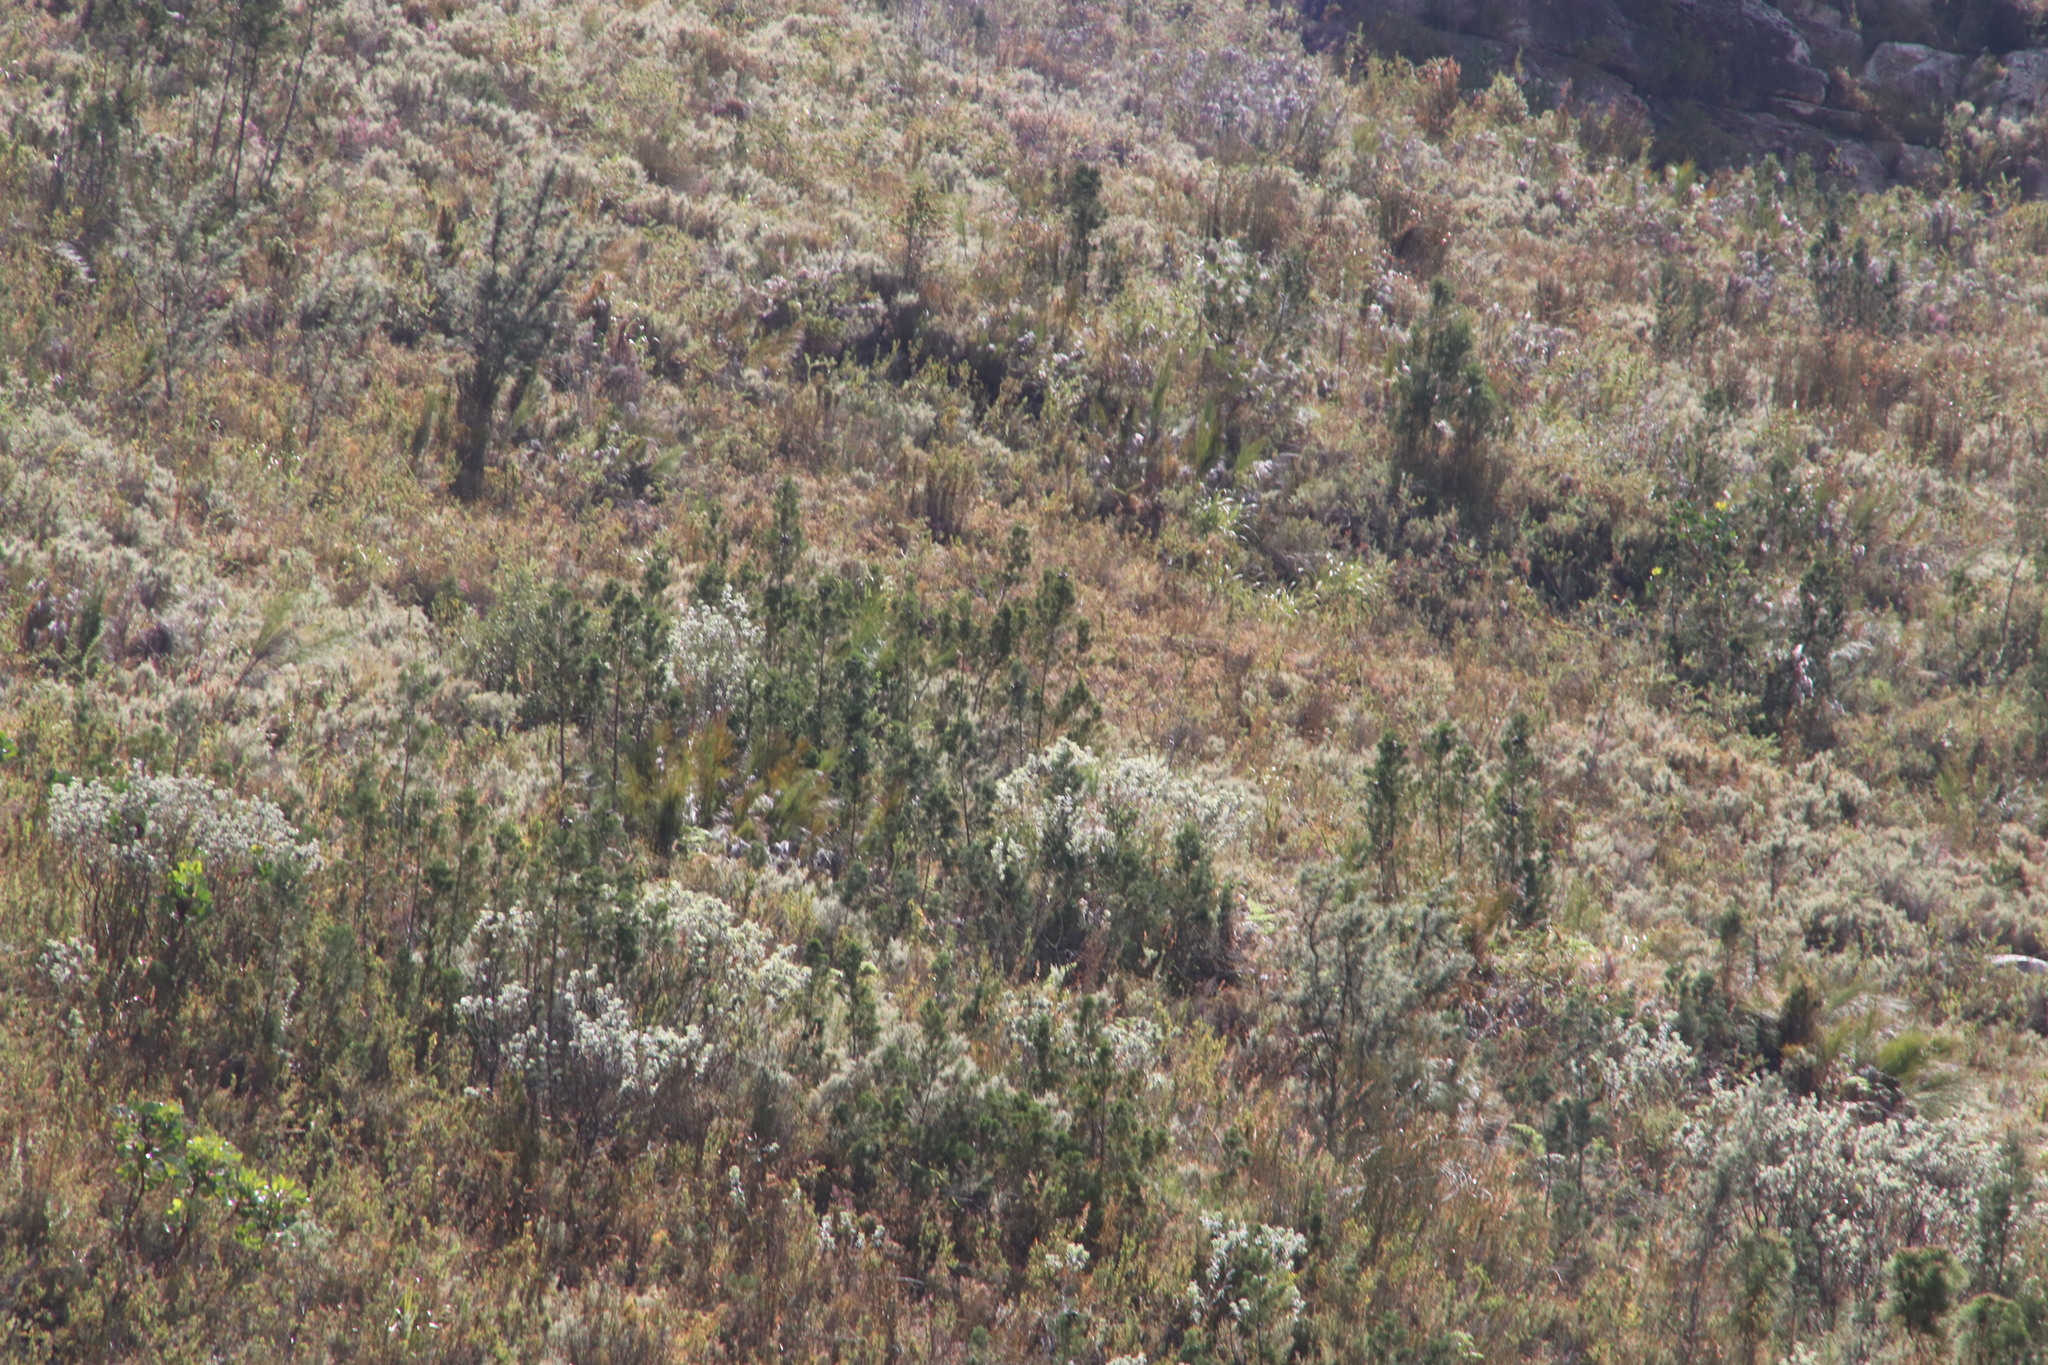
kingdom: Plantae
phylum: Tracheophyta
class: Pinopsida
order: Pinales
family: Cupressaceae
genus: Widdringtonia
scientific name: Widdringtonia nodiflora
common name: Cape cypress
